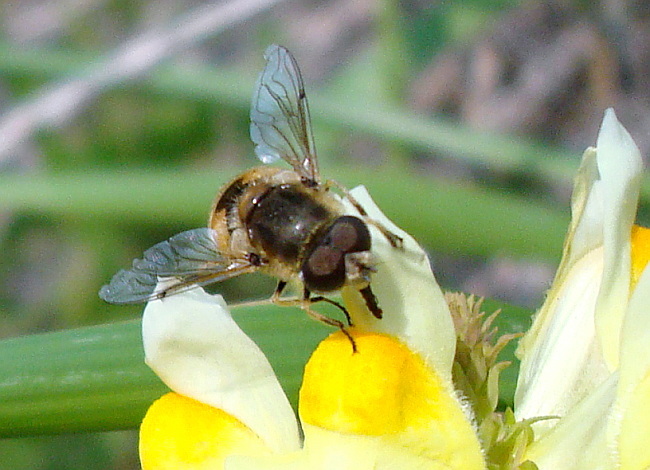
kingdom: Animalia
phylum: Arthropoda
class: Insecta
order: Diptera
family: Syrphidae
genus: Eristalis
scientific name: Eristalis arbustorum
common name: Hover fly
